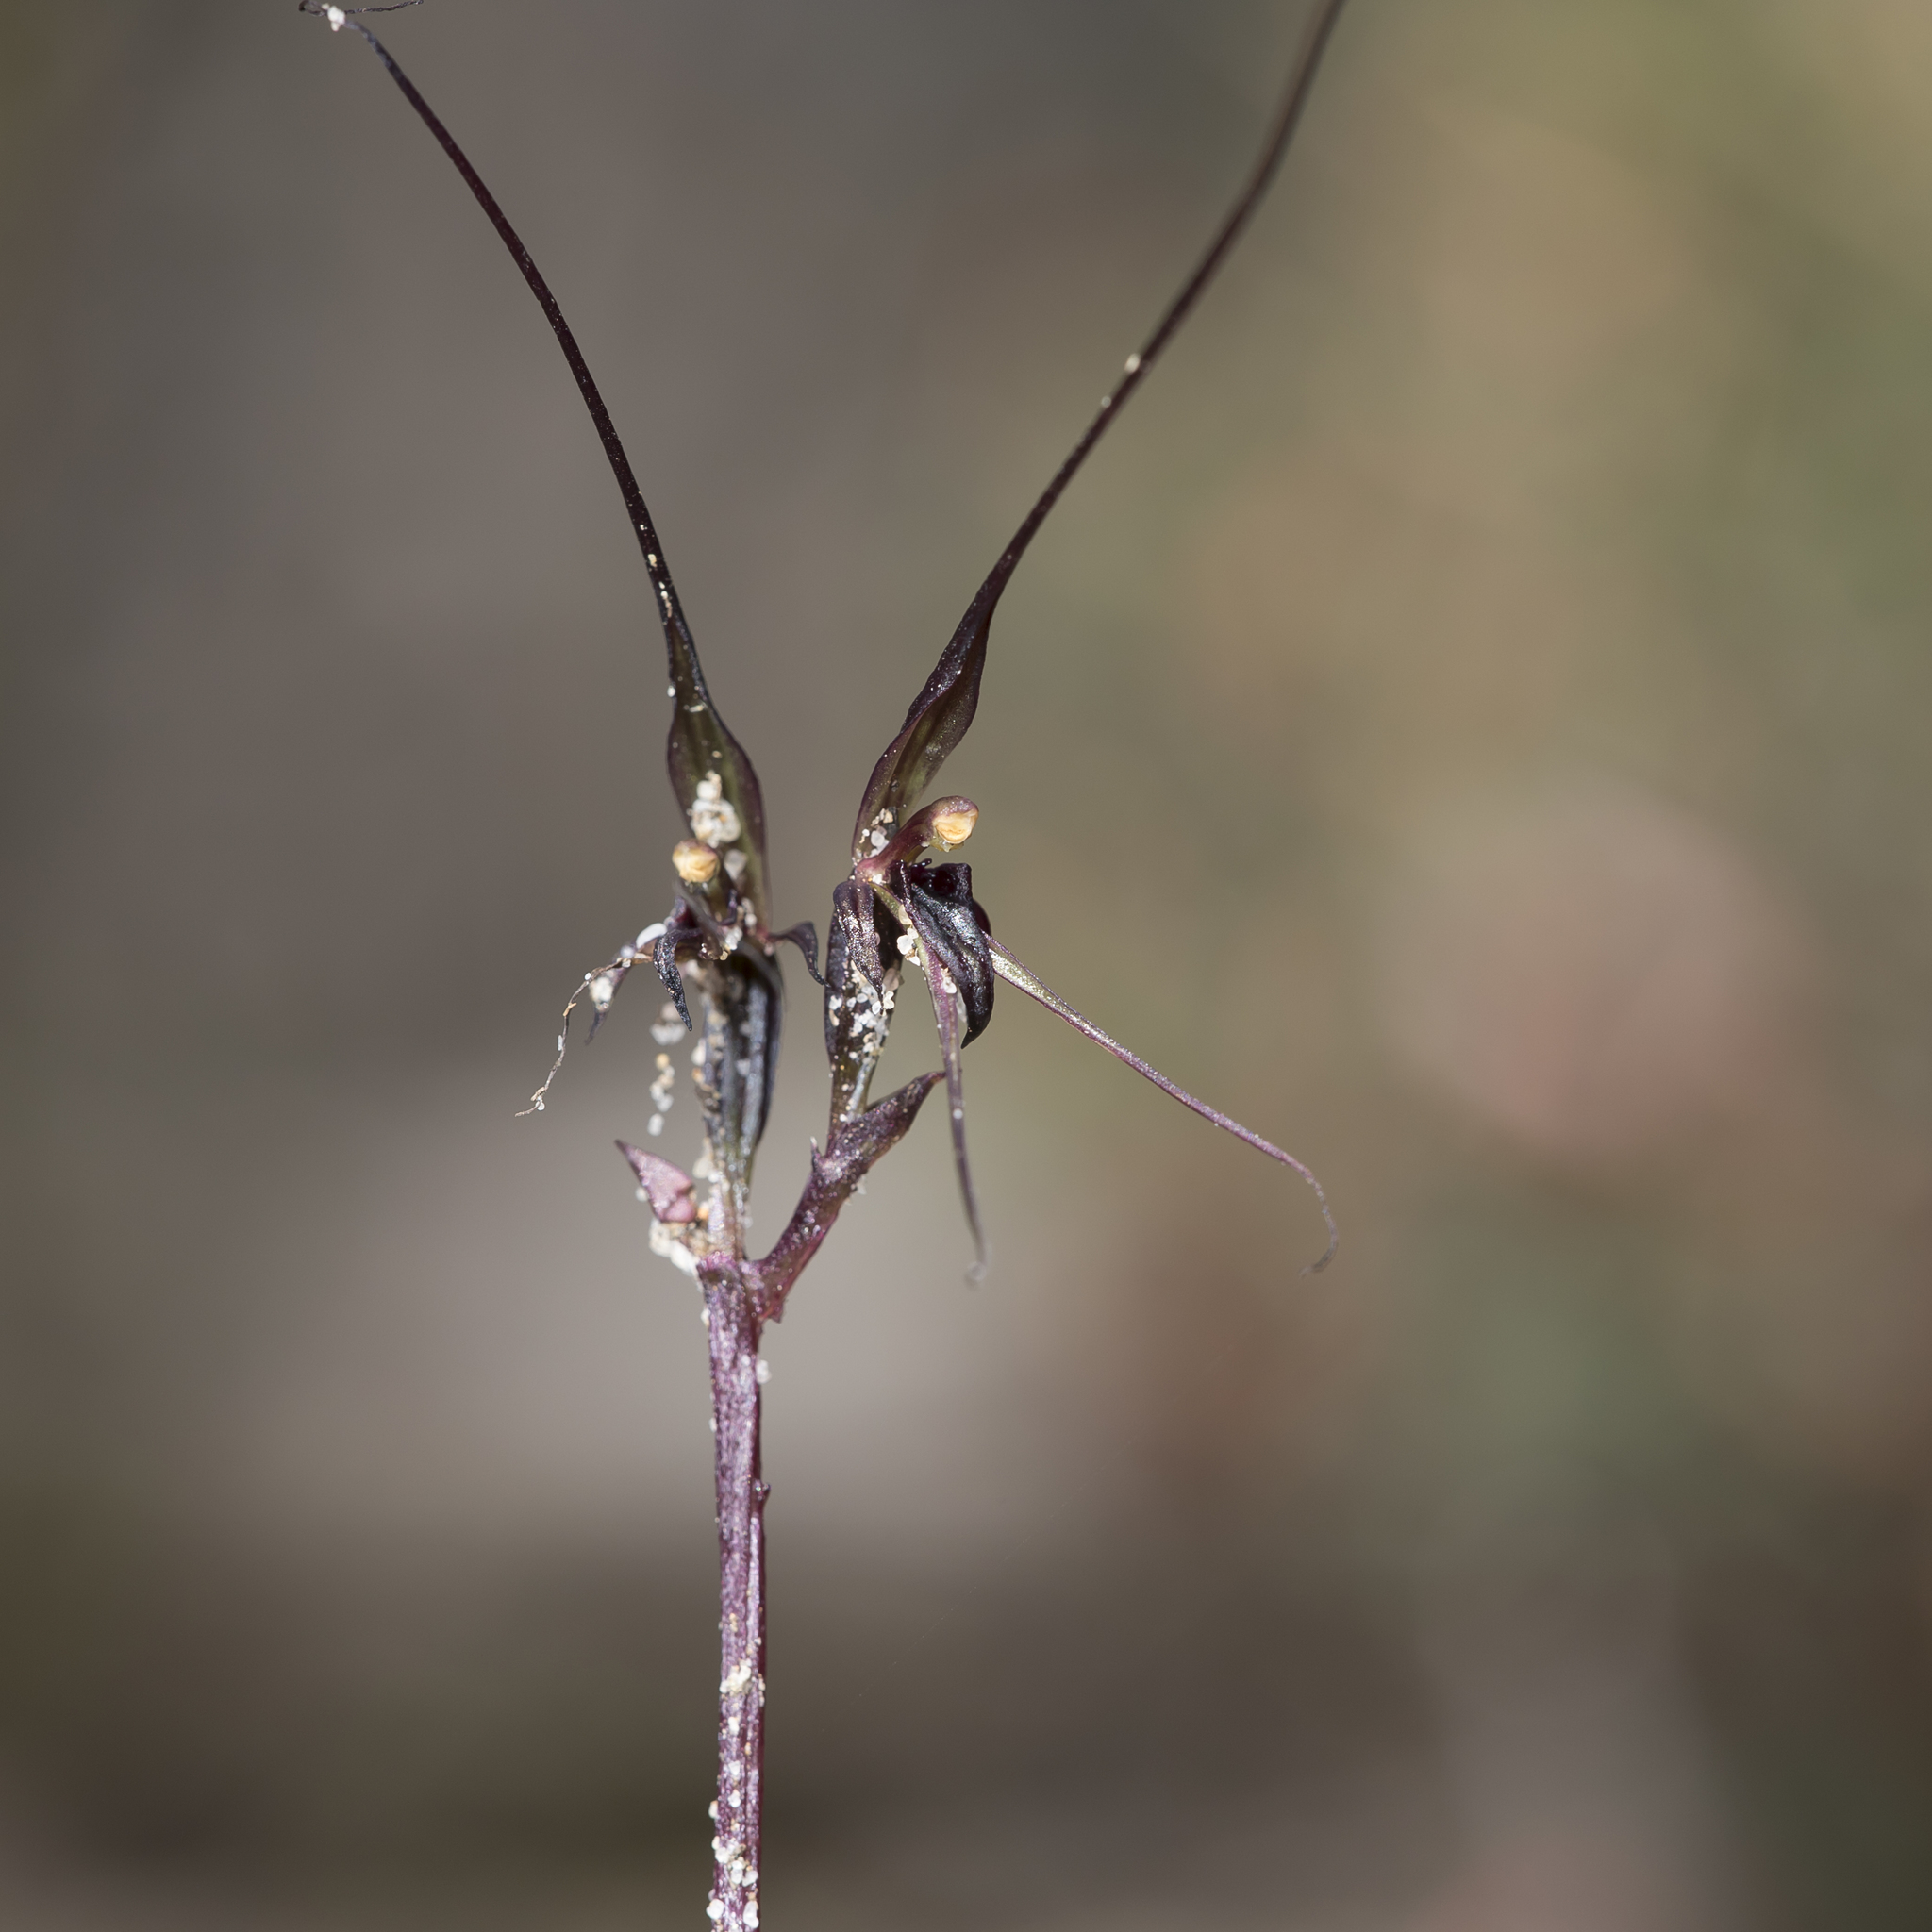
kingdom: Plantae
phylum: Tracheophyta
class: Liliopsida
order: Asparagales
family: Orchidaceae
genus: Acianthus
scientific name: Acianthus caudatus
